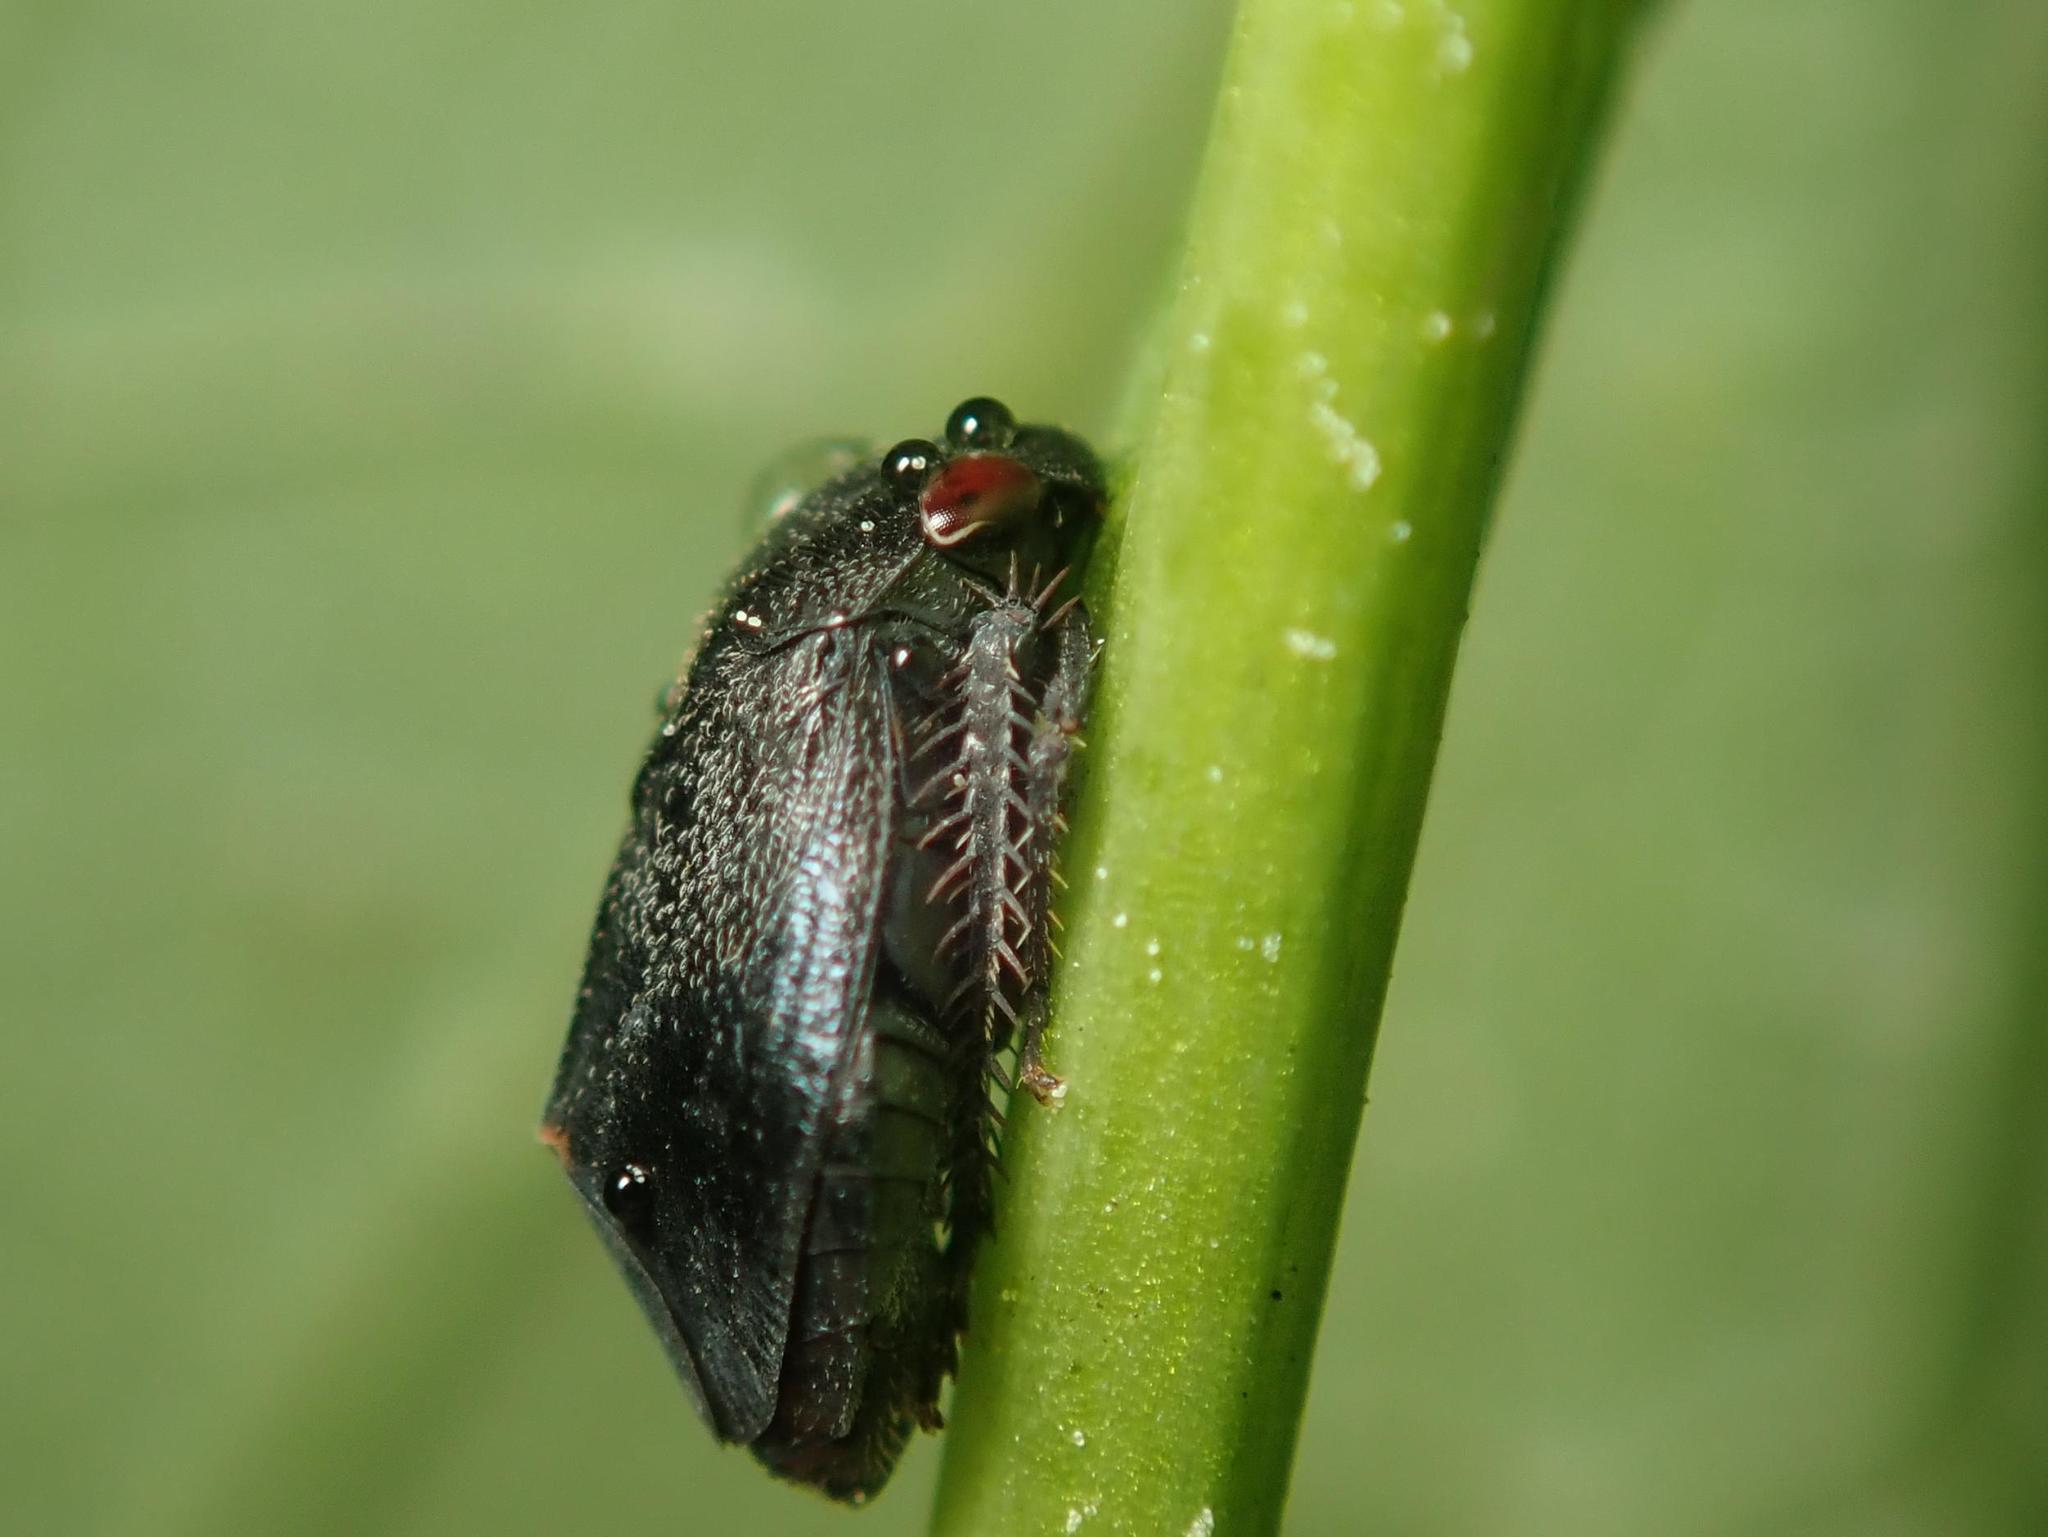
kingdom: Animalia
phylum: Arthropoda
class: Insecta
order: Hemiptera
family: Cicadellidae
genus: Penthimia
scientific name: Penthimia nigra
